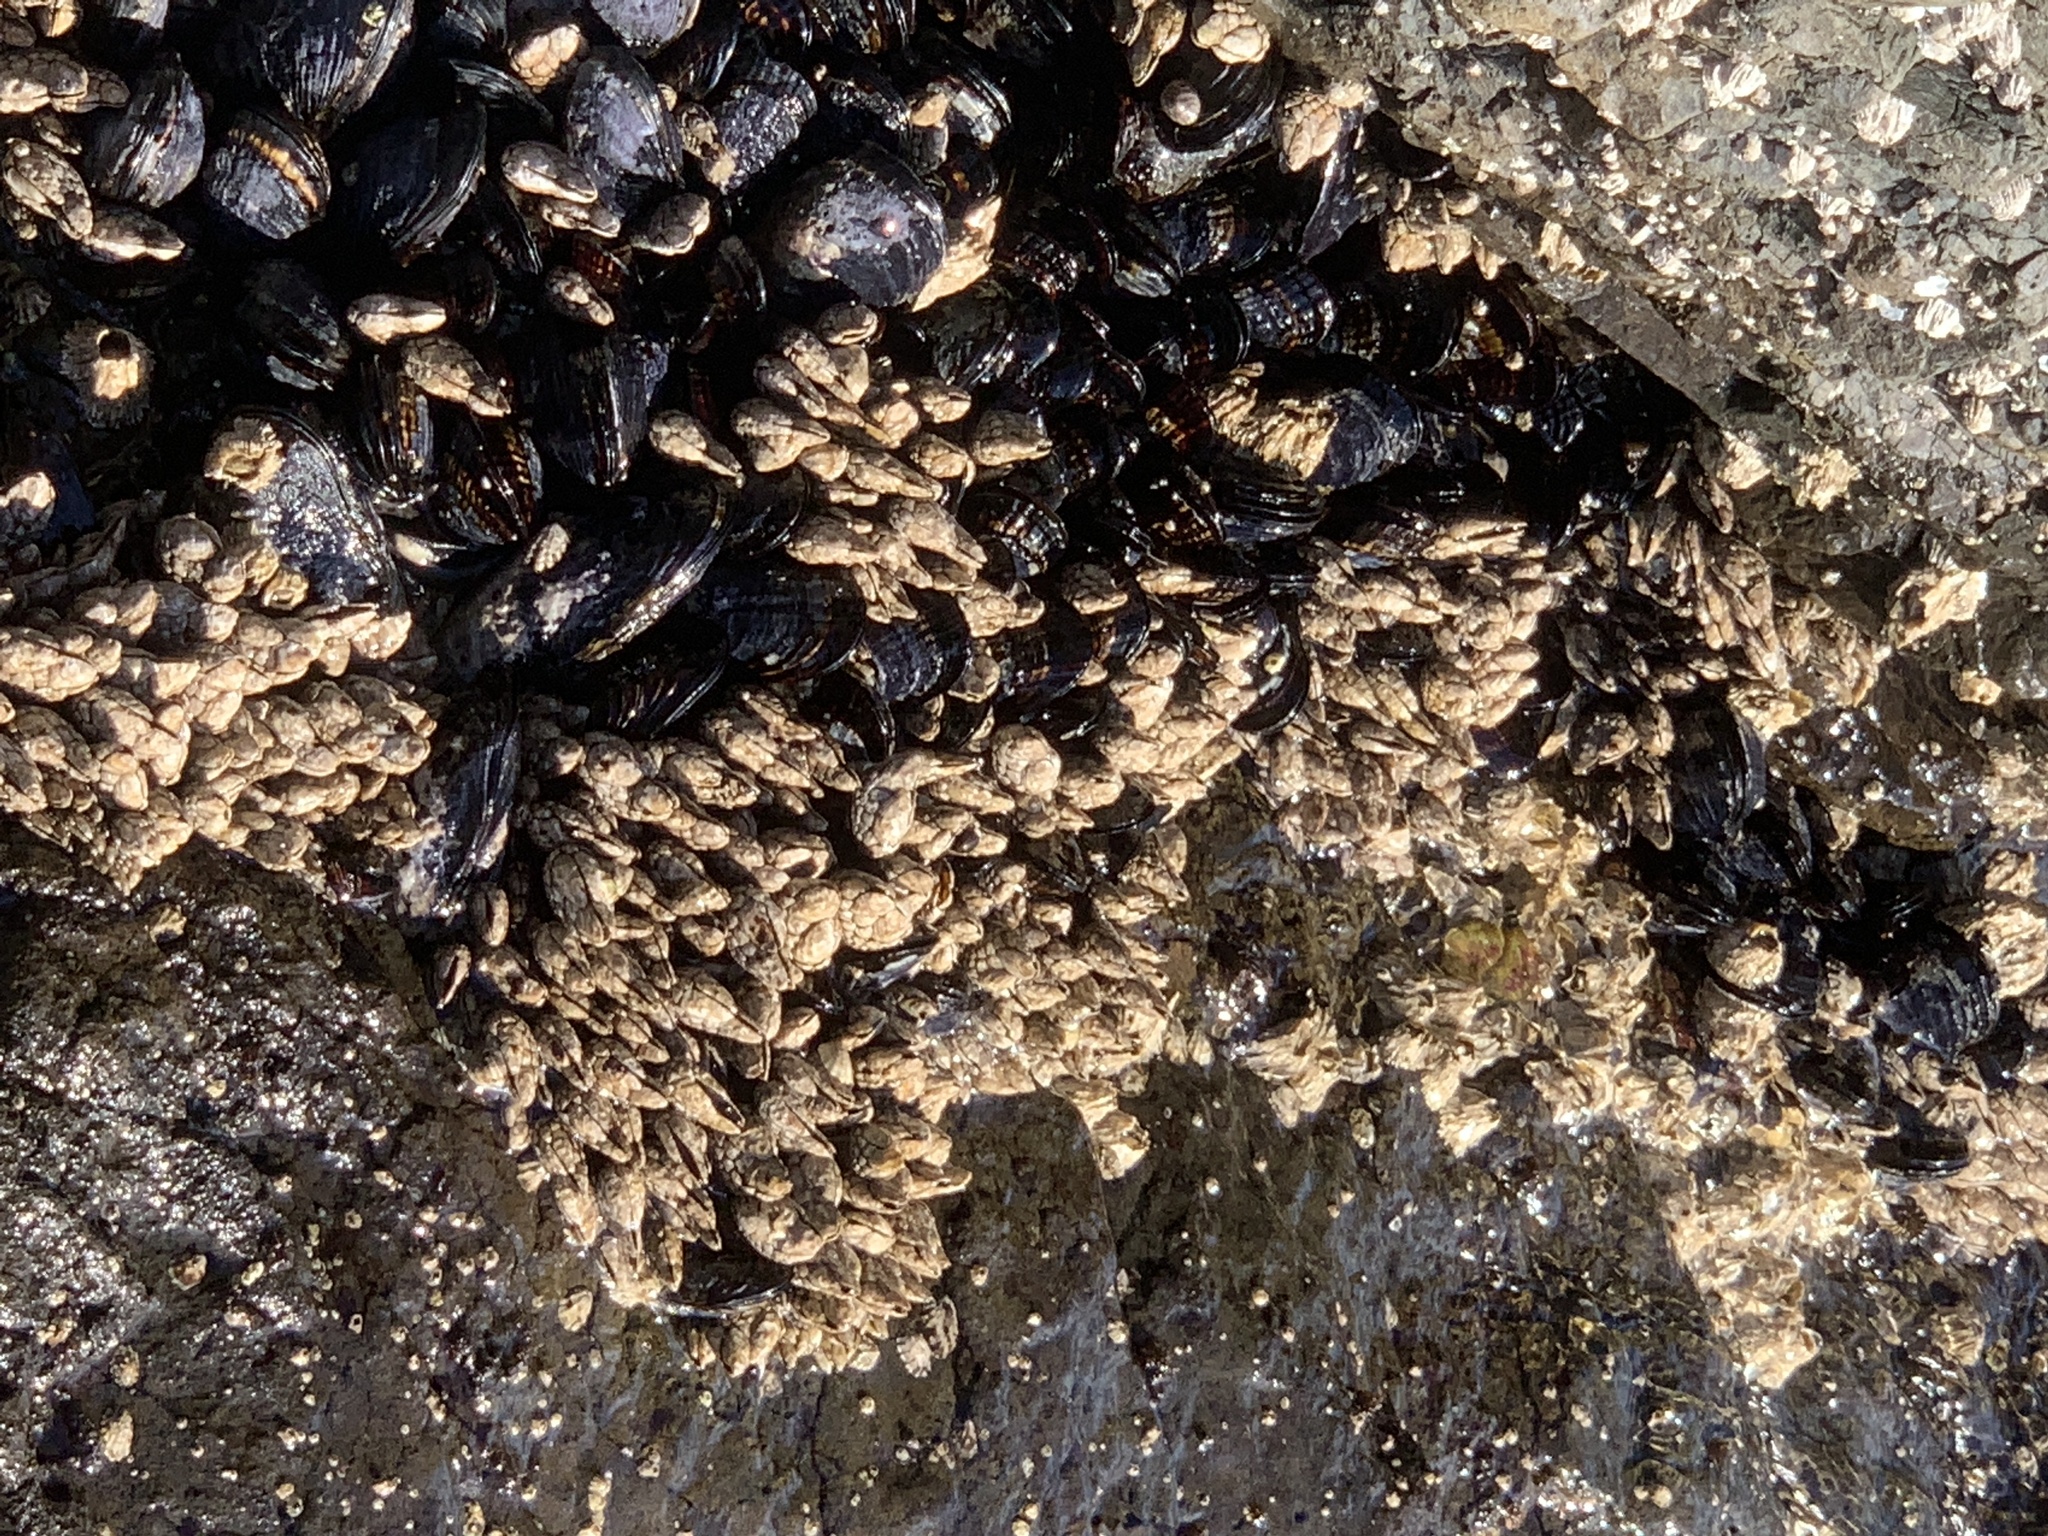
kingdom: Animalia
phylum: Arthropoda
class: Maxillopoda
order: Pedunculata
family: Pollicipedidae
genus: Pollicipes
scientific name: Pollicipes polymerus
